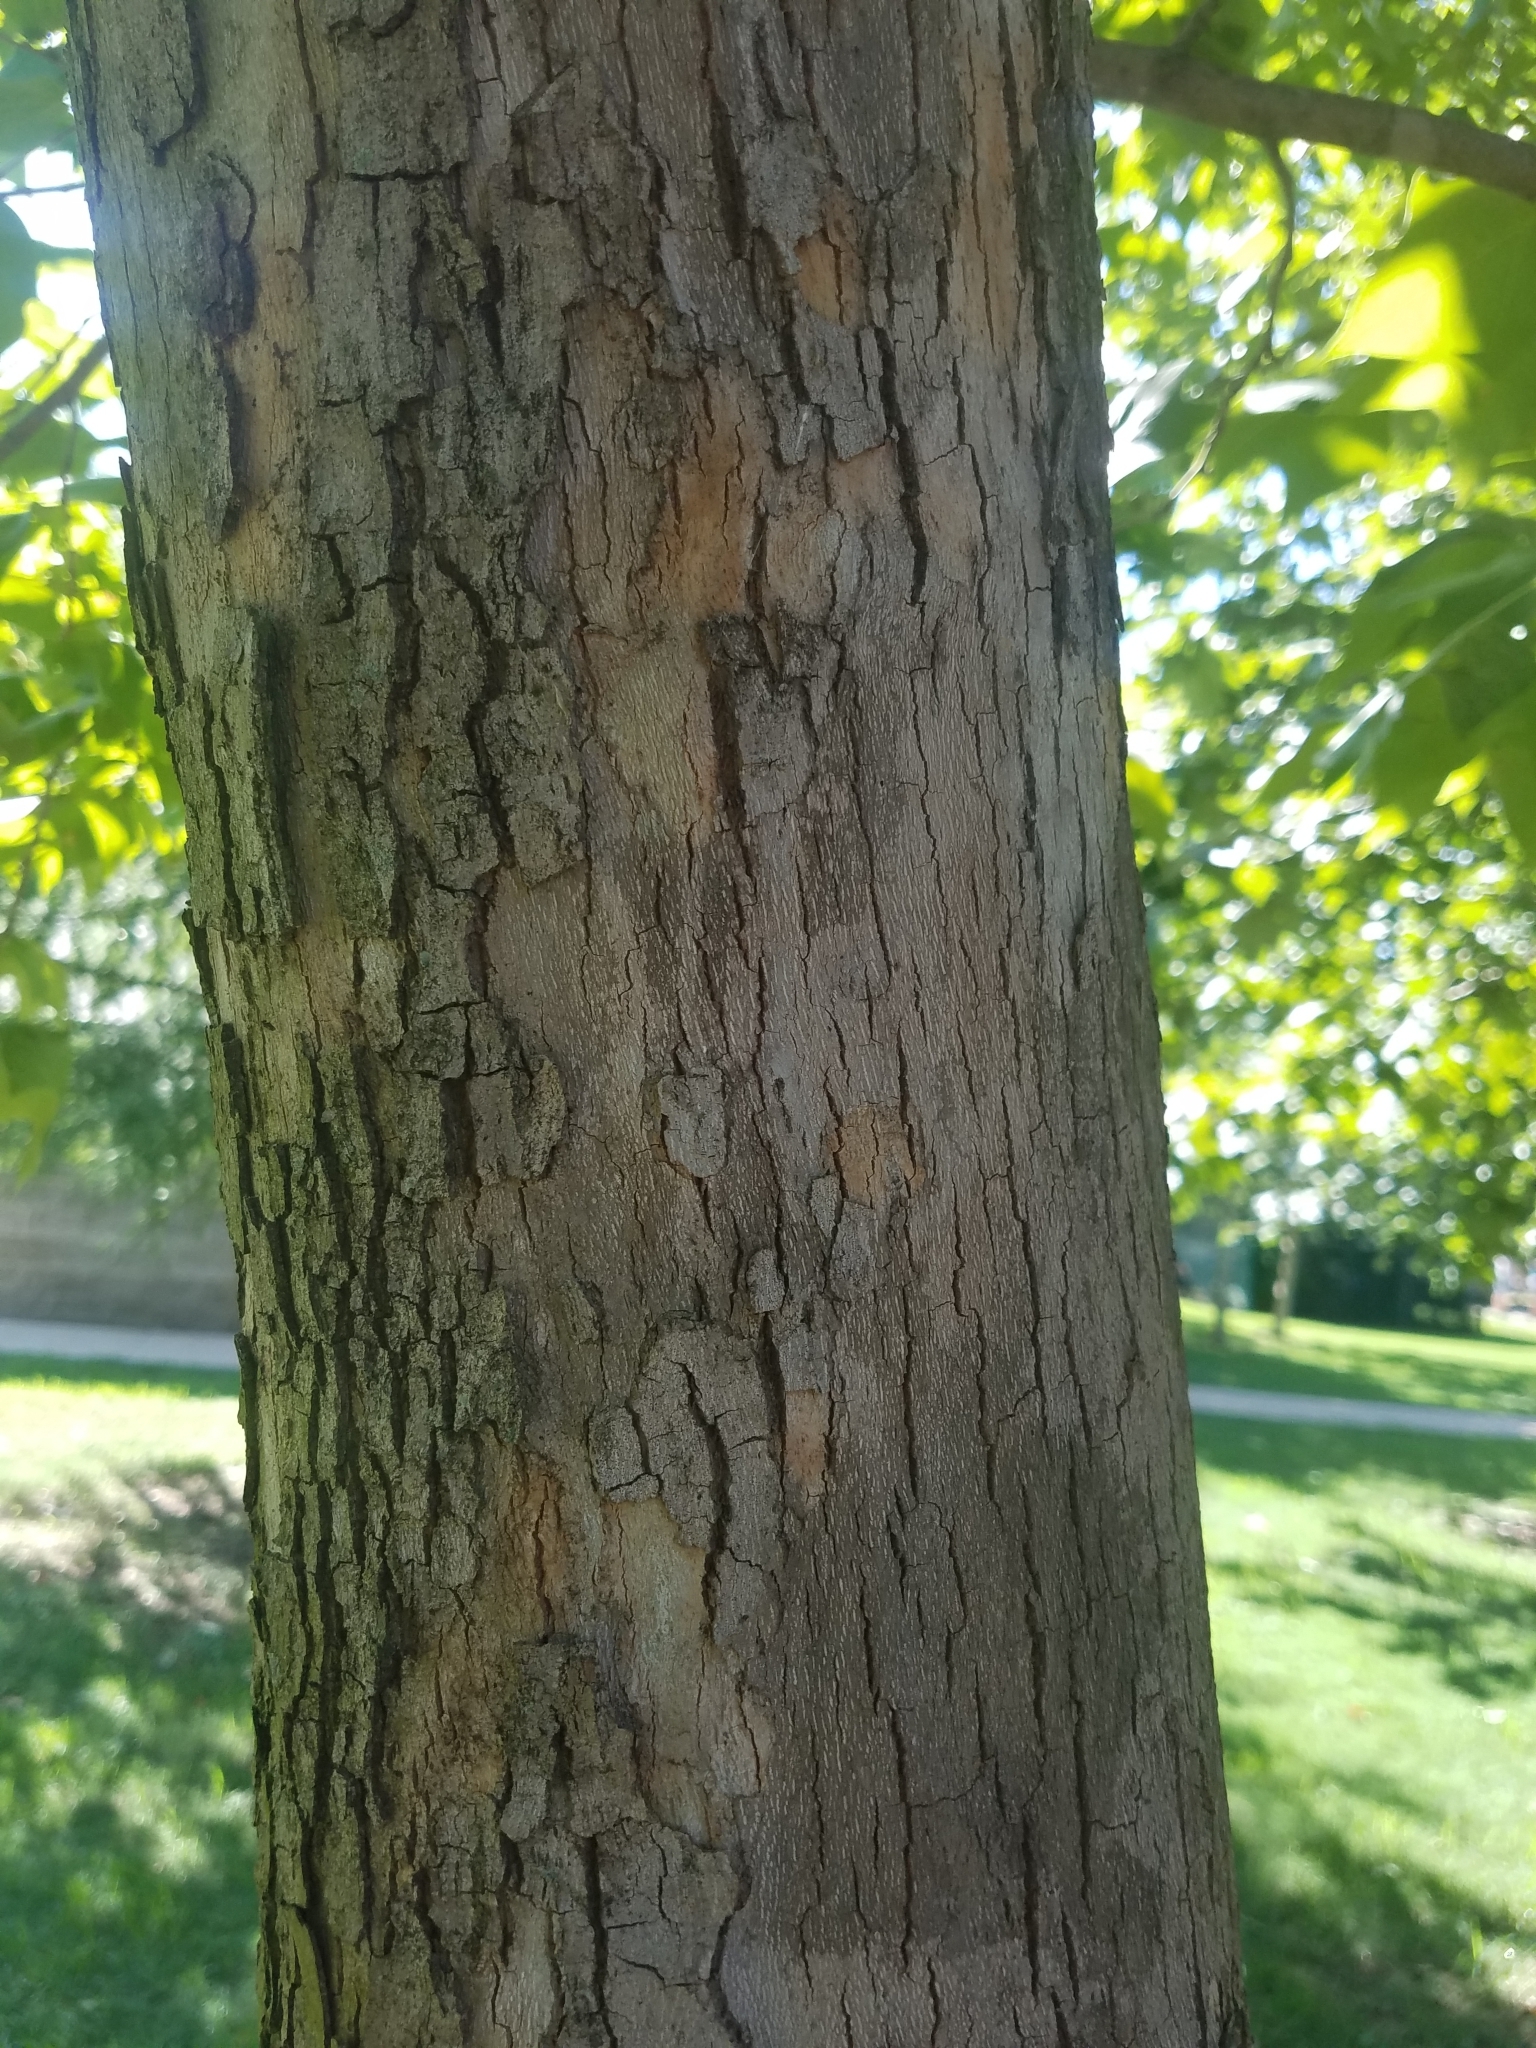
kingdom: Plantae
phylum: Tracheophyta
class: Magnoliopsida
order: Proteales
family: Platanaceae
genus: Platanus
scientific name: Platanus occidentalis
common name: American sycamore
